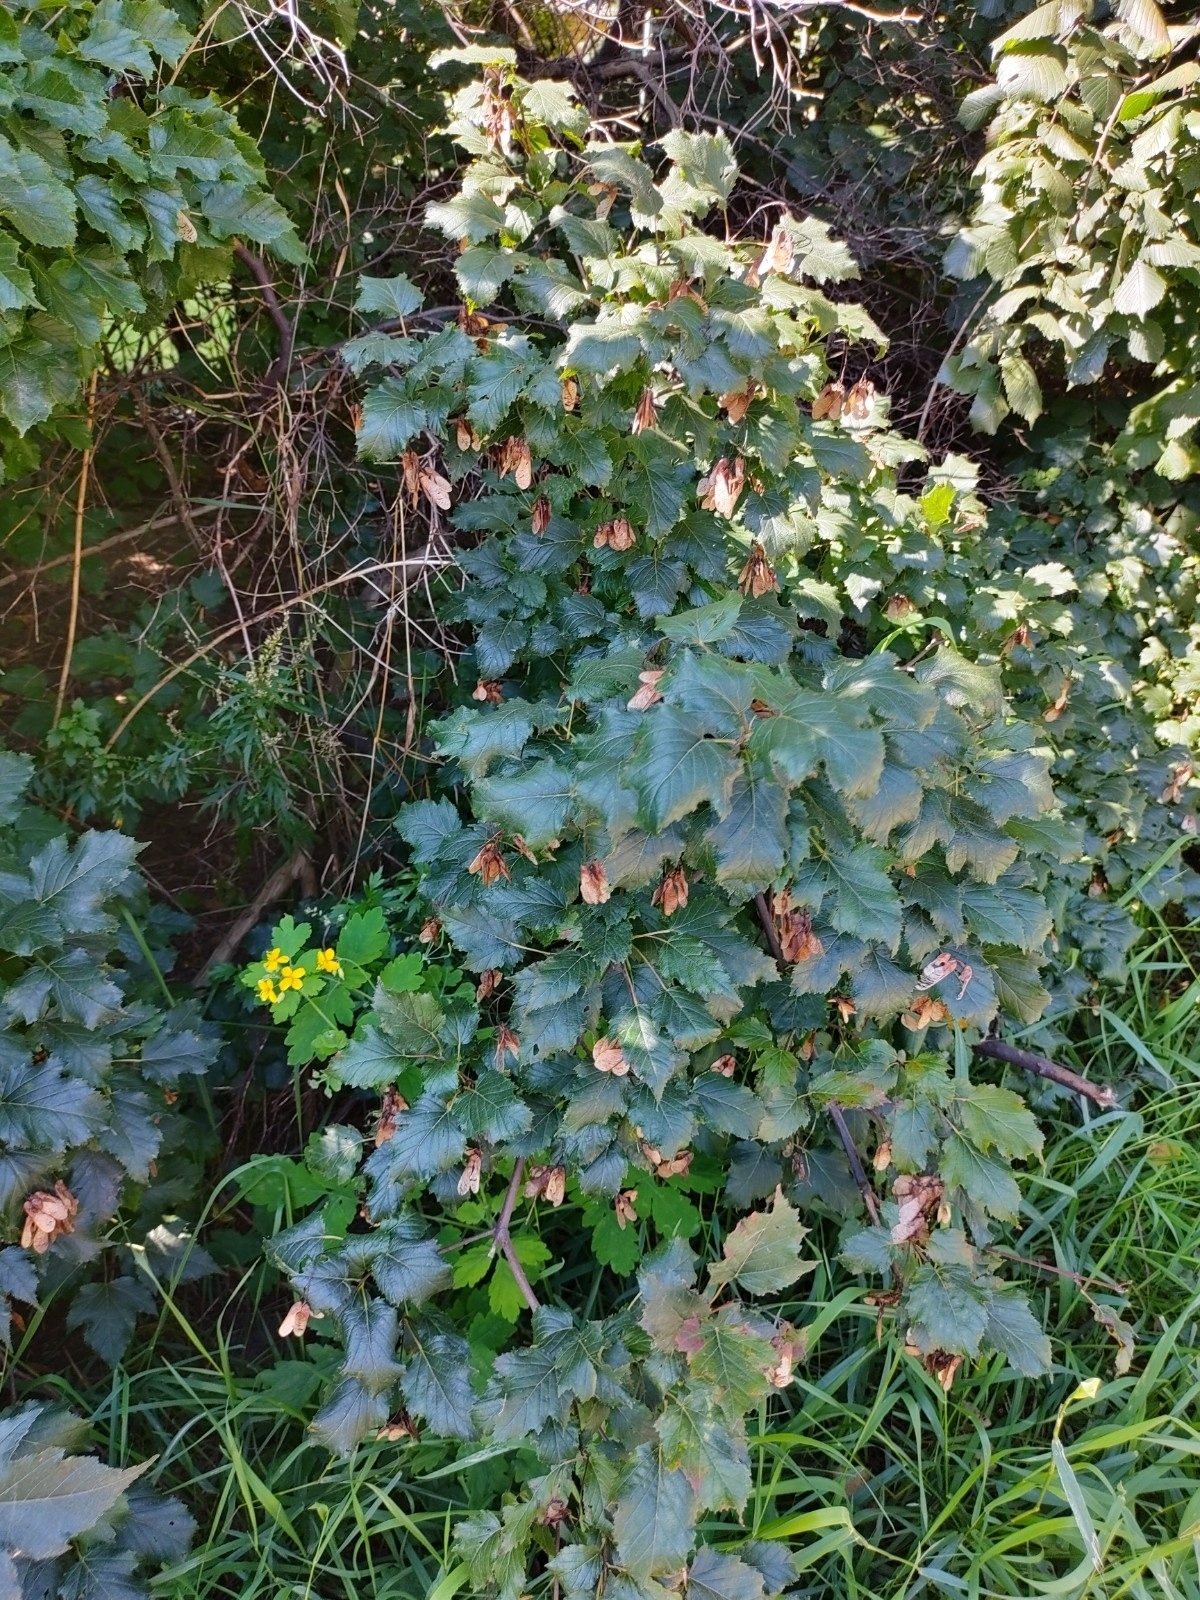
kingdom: Plantae
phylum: Tracheophyta
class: Magnoliopsida
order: Sapindales
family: Sapindaceae
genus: Acer
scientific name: Acer tataricum
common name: Tartar maple
